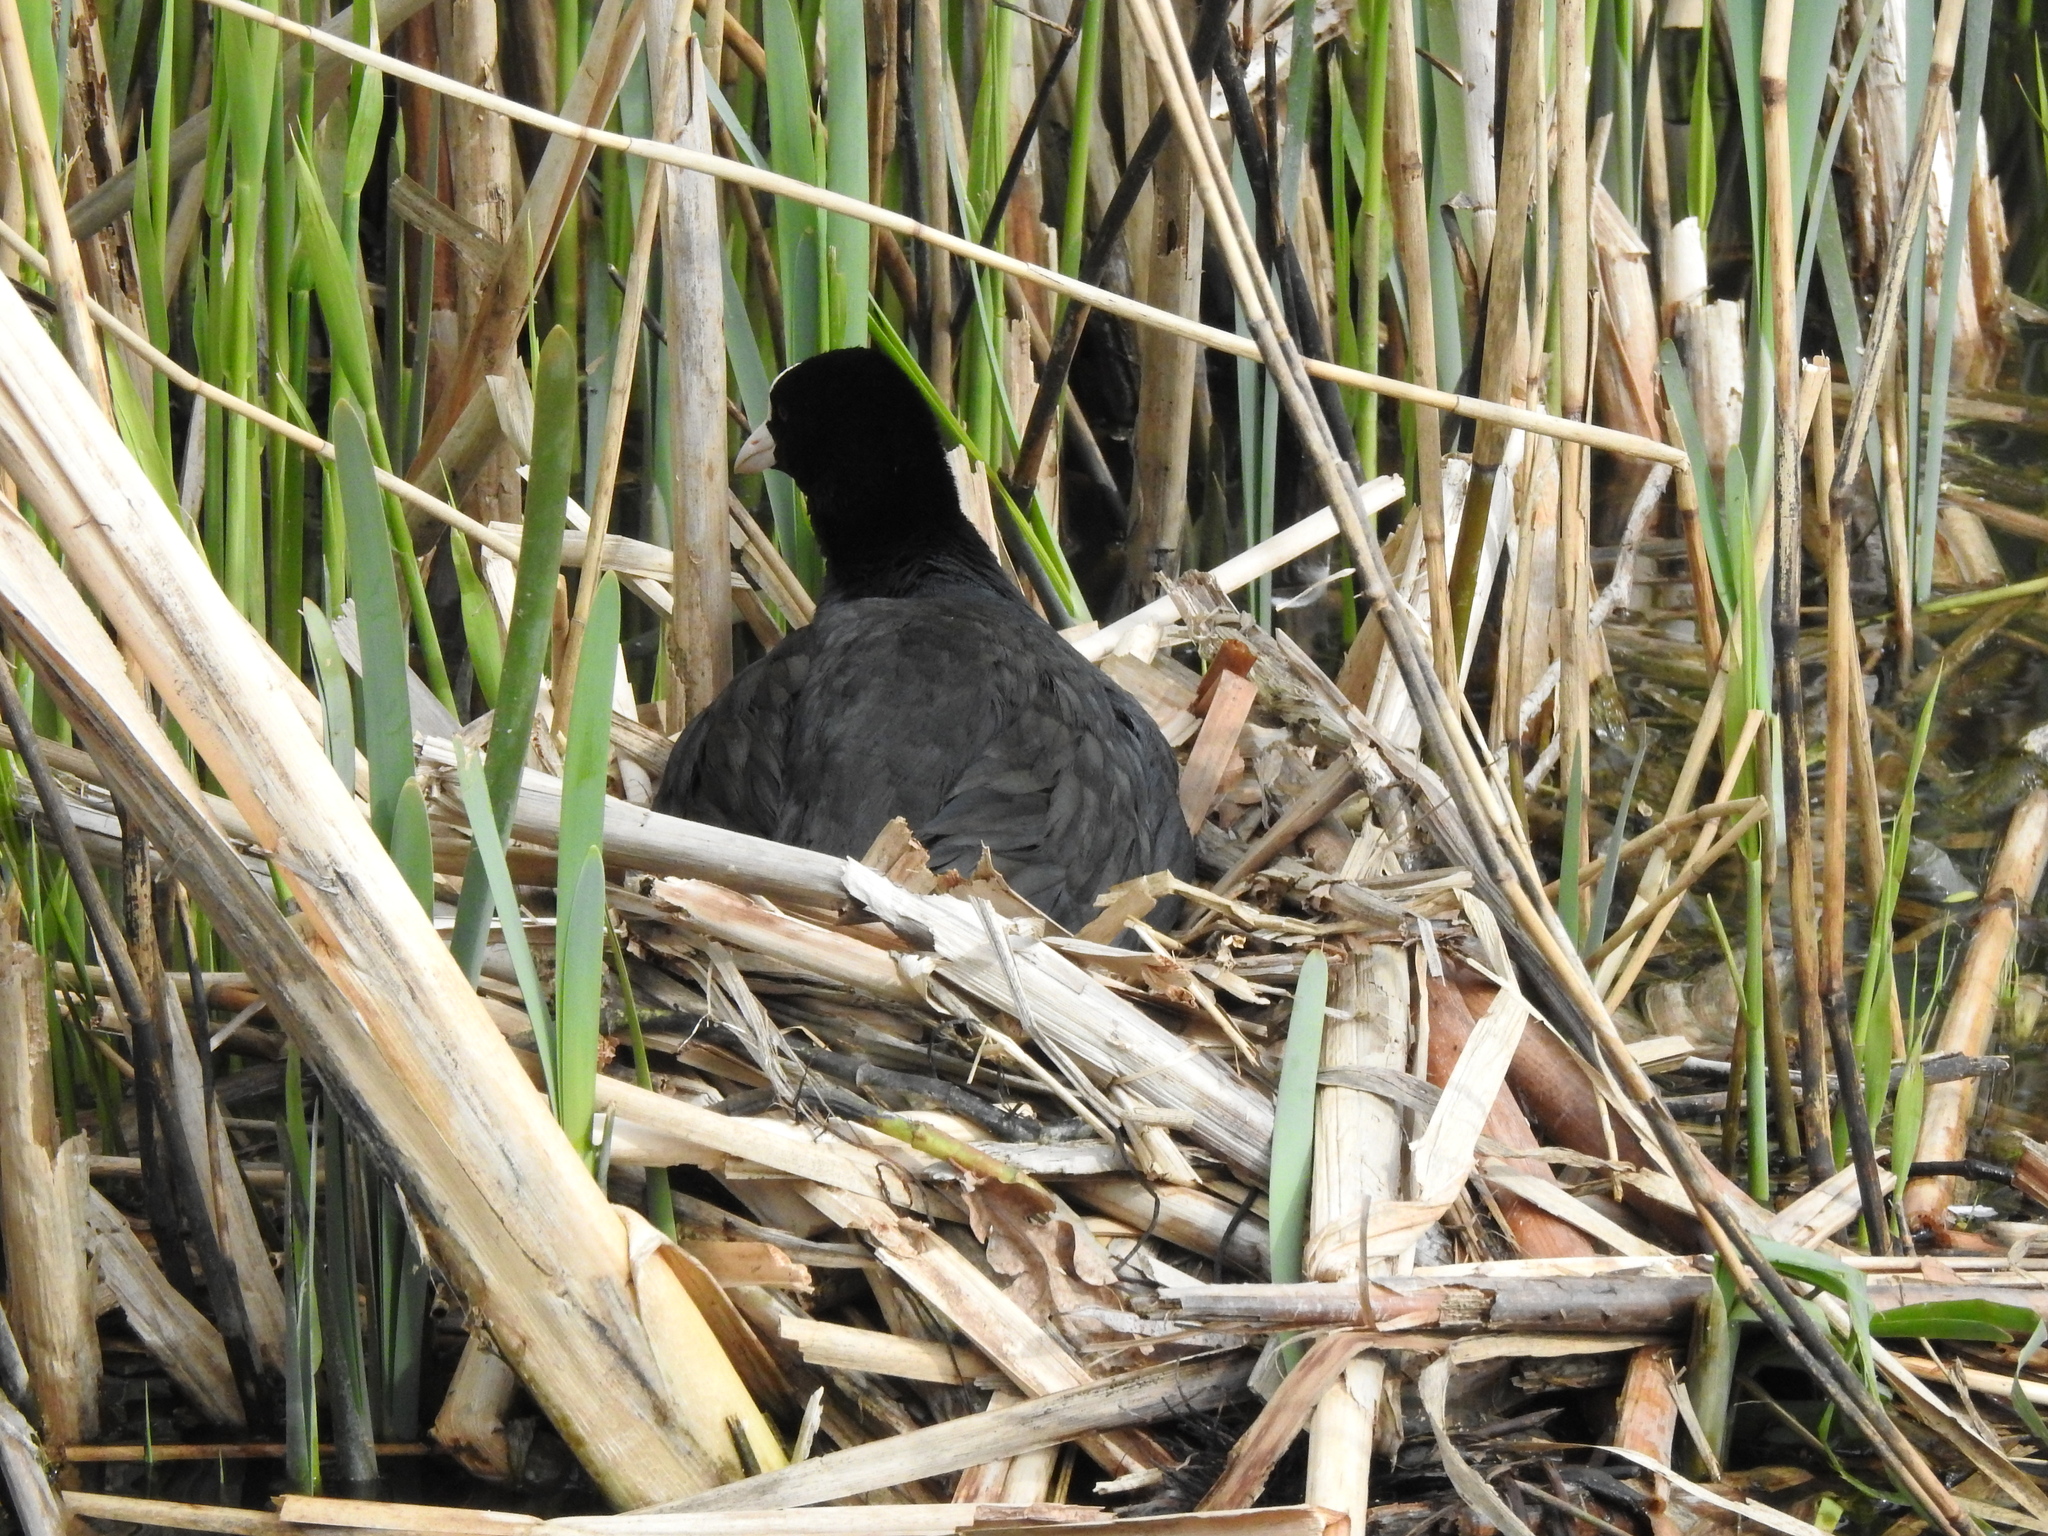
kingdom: Animalia
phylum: Chordata
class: Aves
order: Gruiformes
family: Rallidae
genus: Fulica
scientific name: Fulica atra
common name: Eurasian coot
